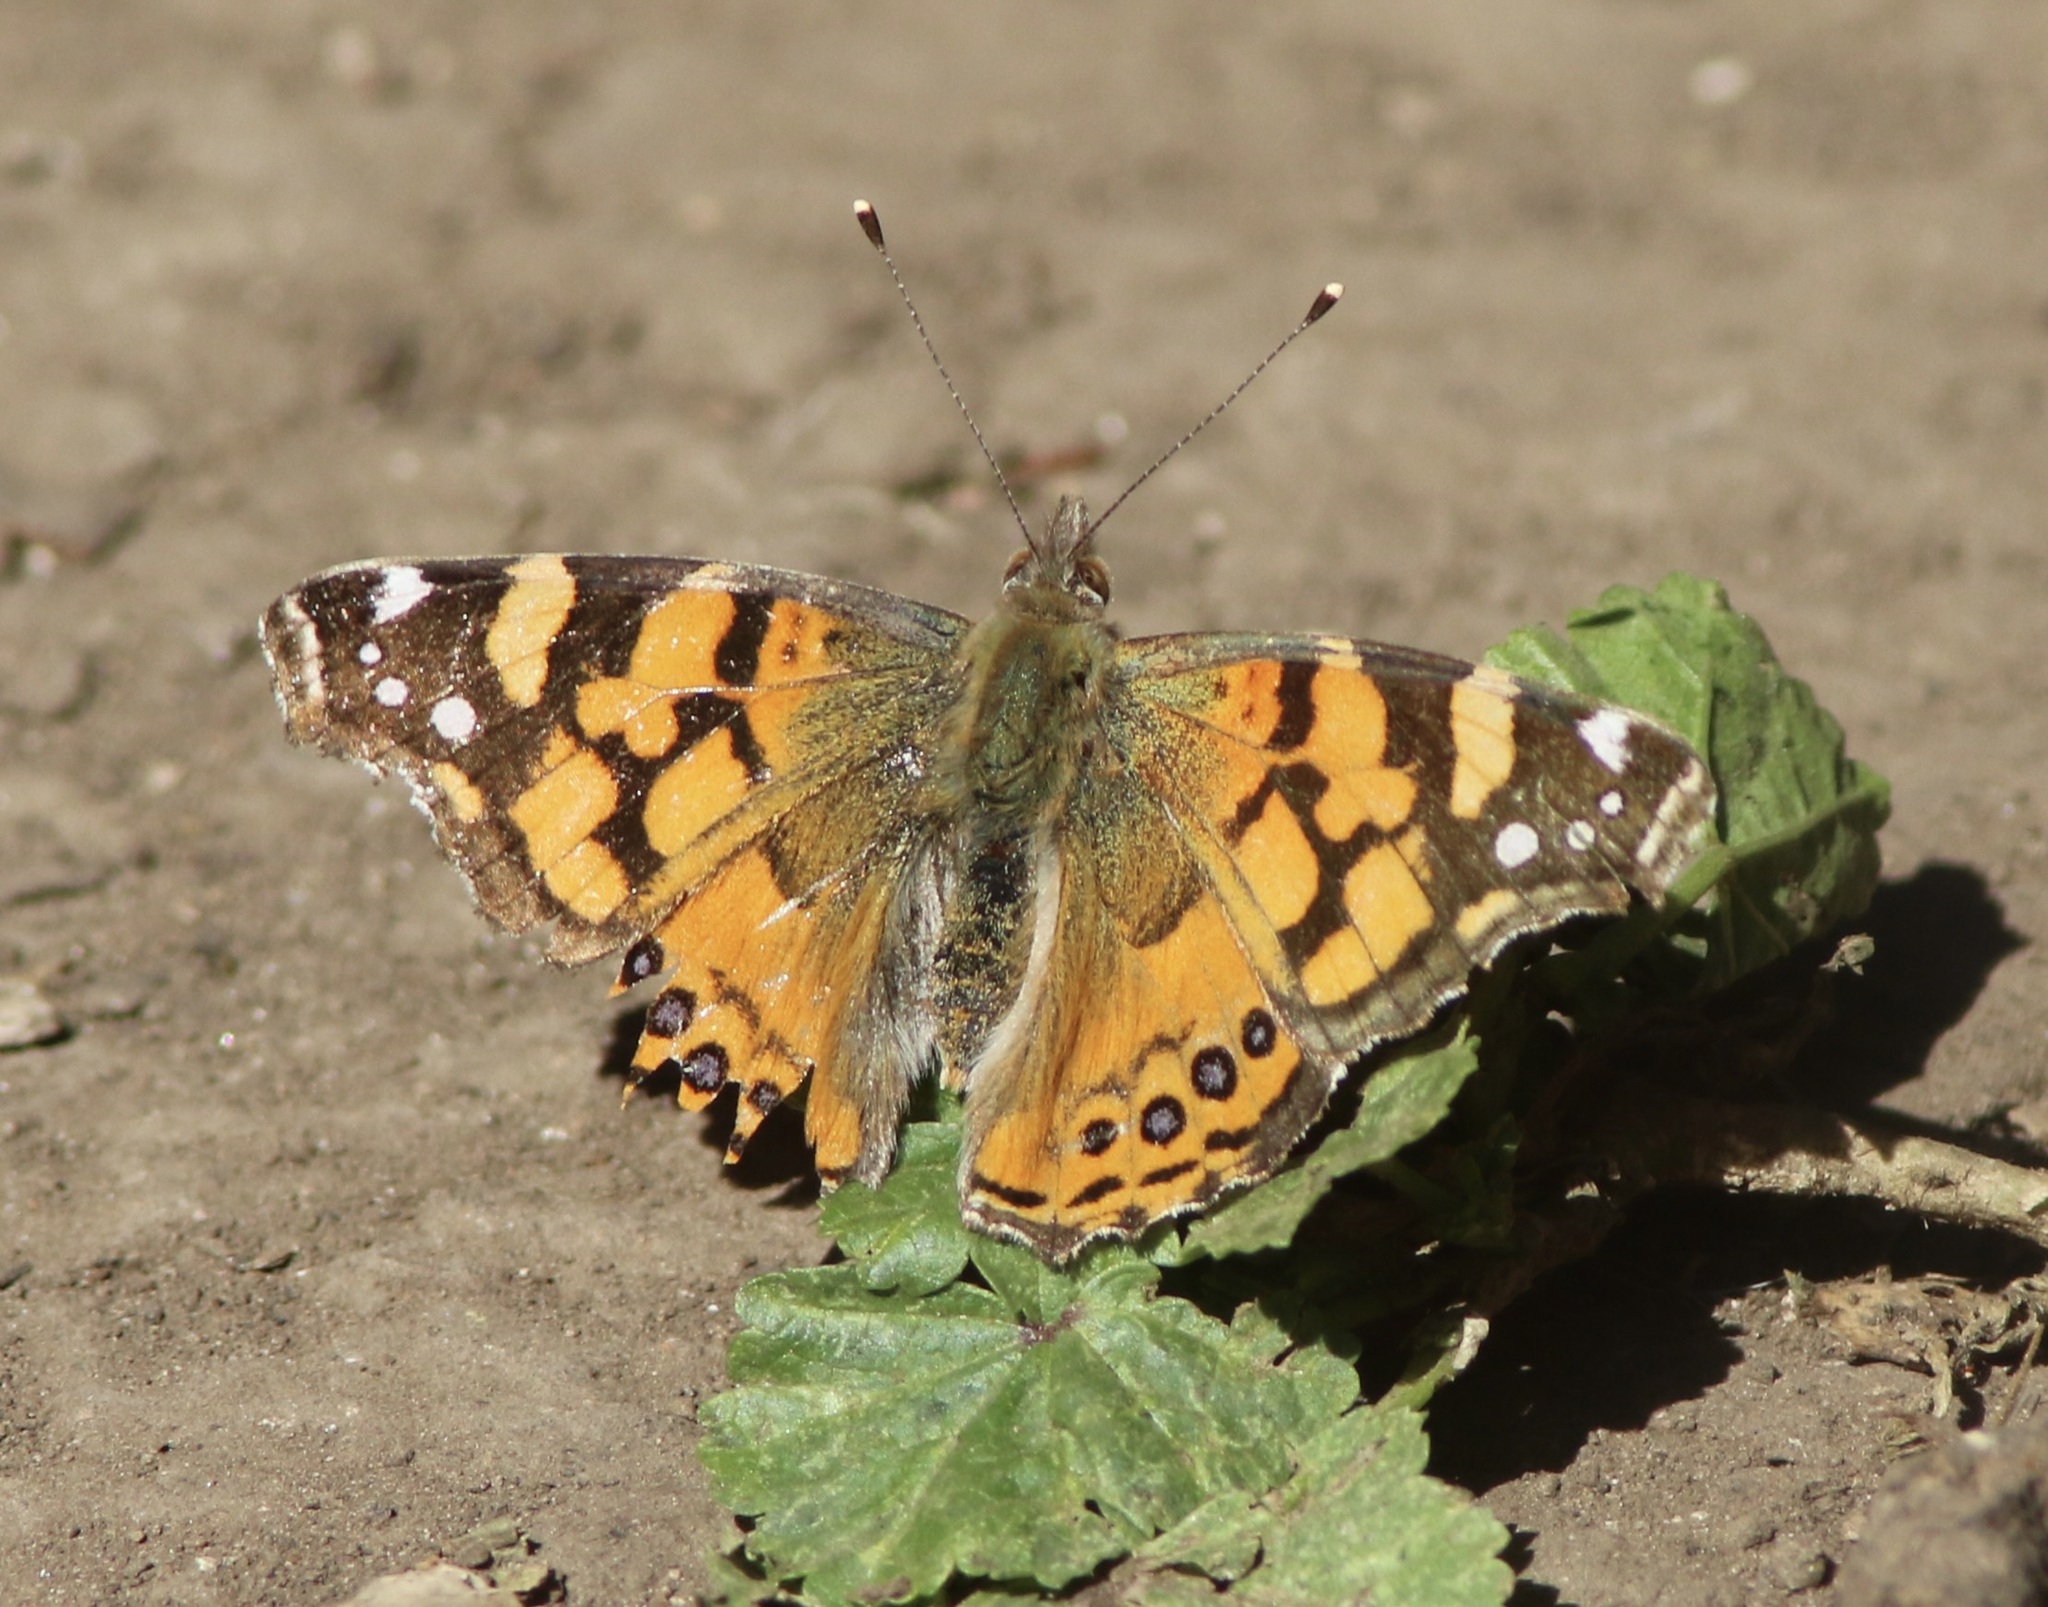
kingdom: Animalia
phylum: Arthropoda
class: Insecta
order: Lepidoptera
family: Nymphalidae
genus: Vanessa
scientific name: Vanessa annabella
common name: West coast lady
